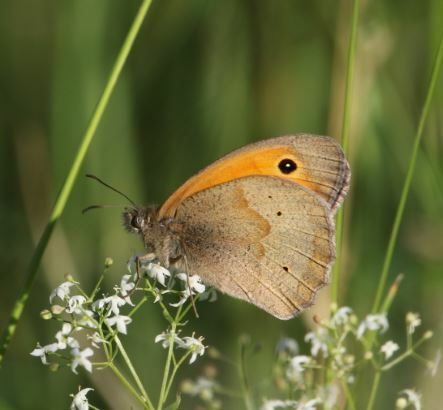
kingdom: Animalia
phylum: Arthropoda
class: Insecta
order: Lepidoptera
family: Nymphalidae
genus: Maniola
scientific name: Maniola jurtina
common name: Meadow brown
